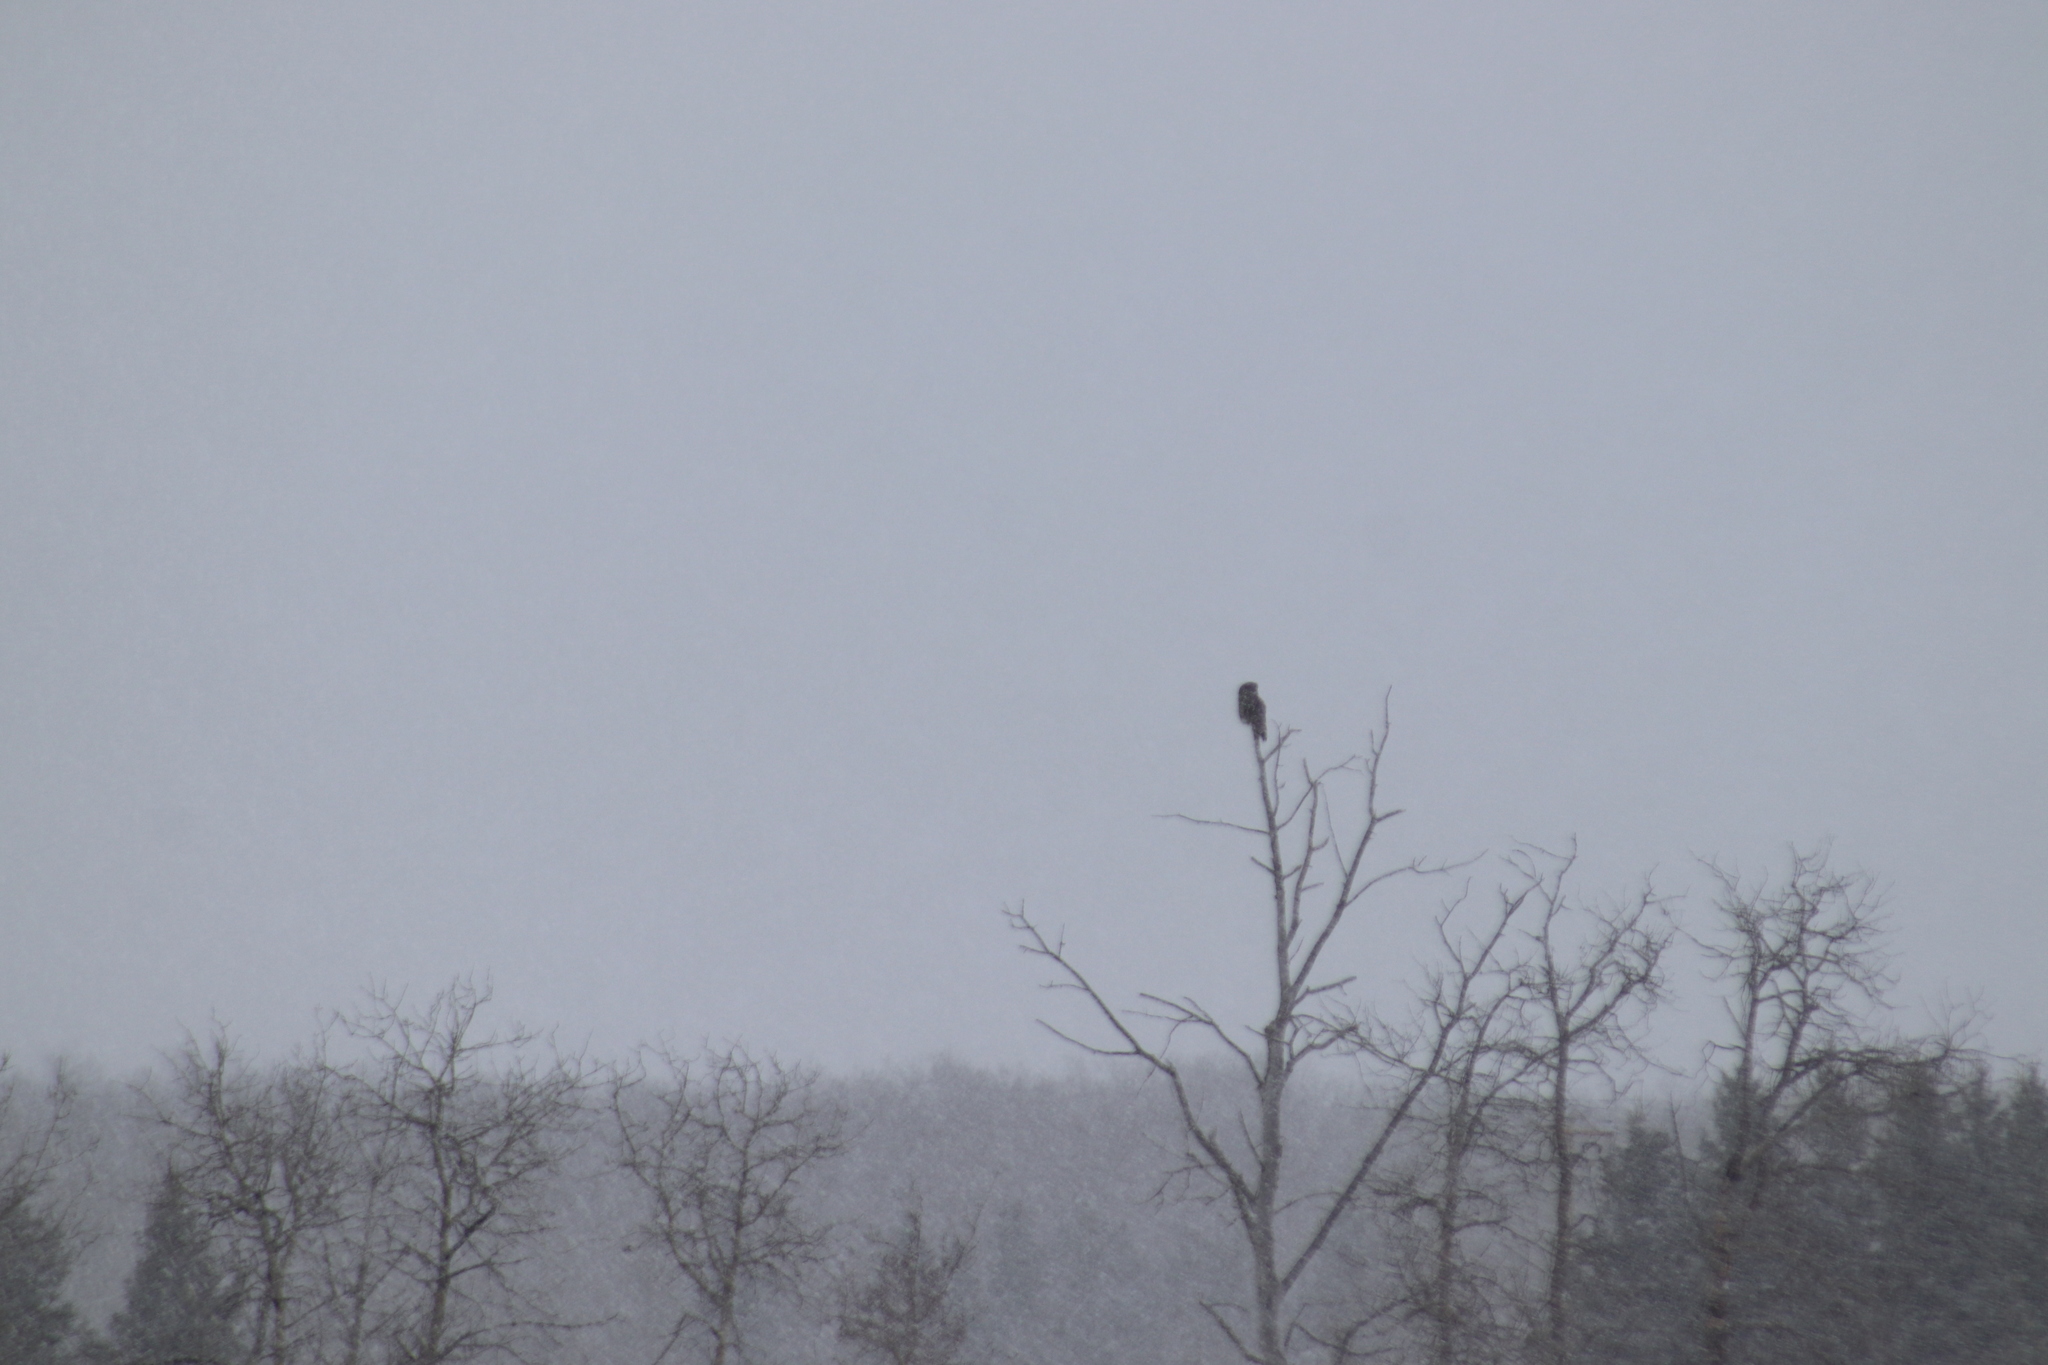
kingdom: Animalia
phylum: Chordata
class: Aves
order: Strigiformes
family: Strigidae
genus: Strix
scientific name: Strix nebulosa
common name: Great grey owl
